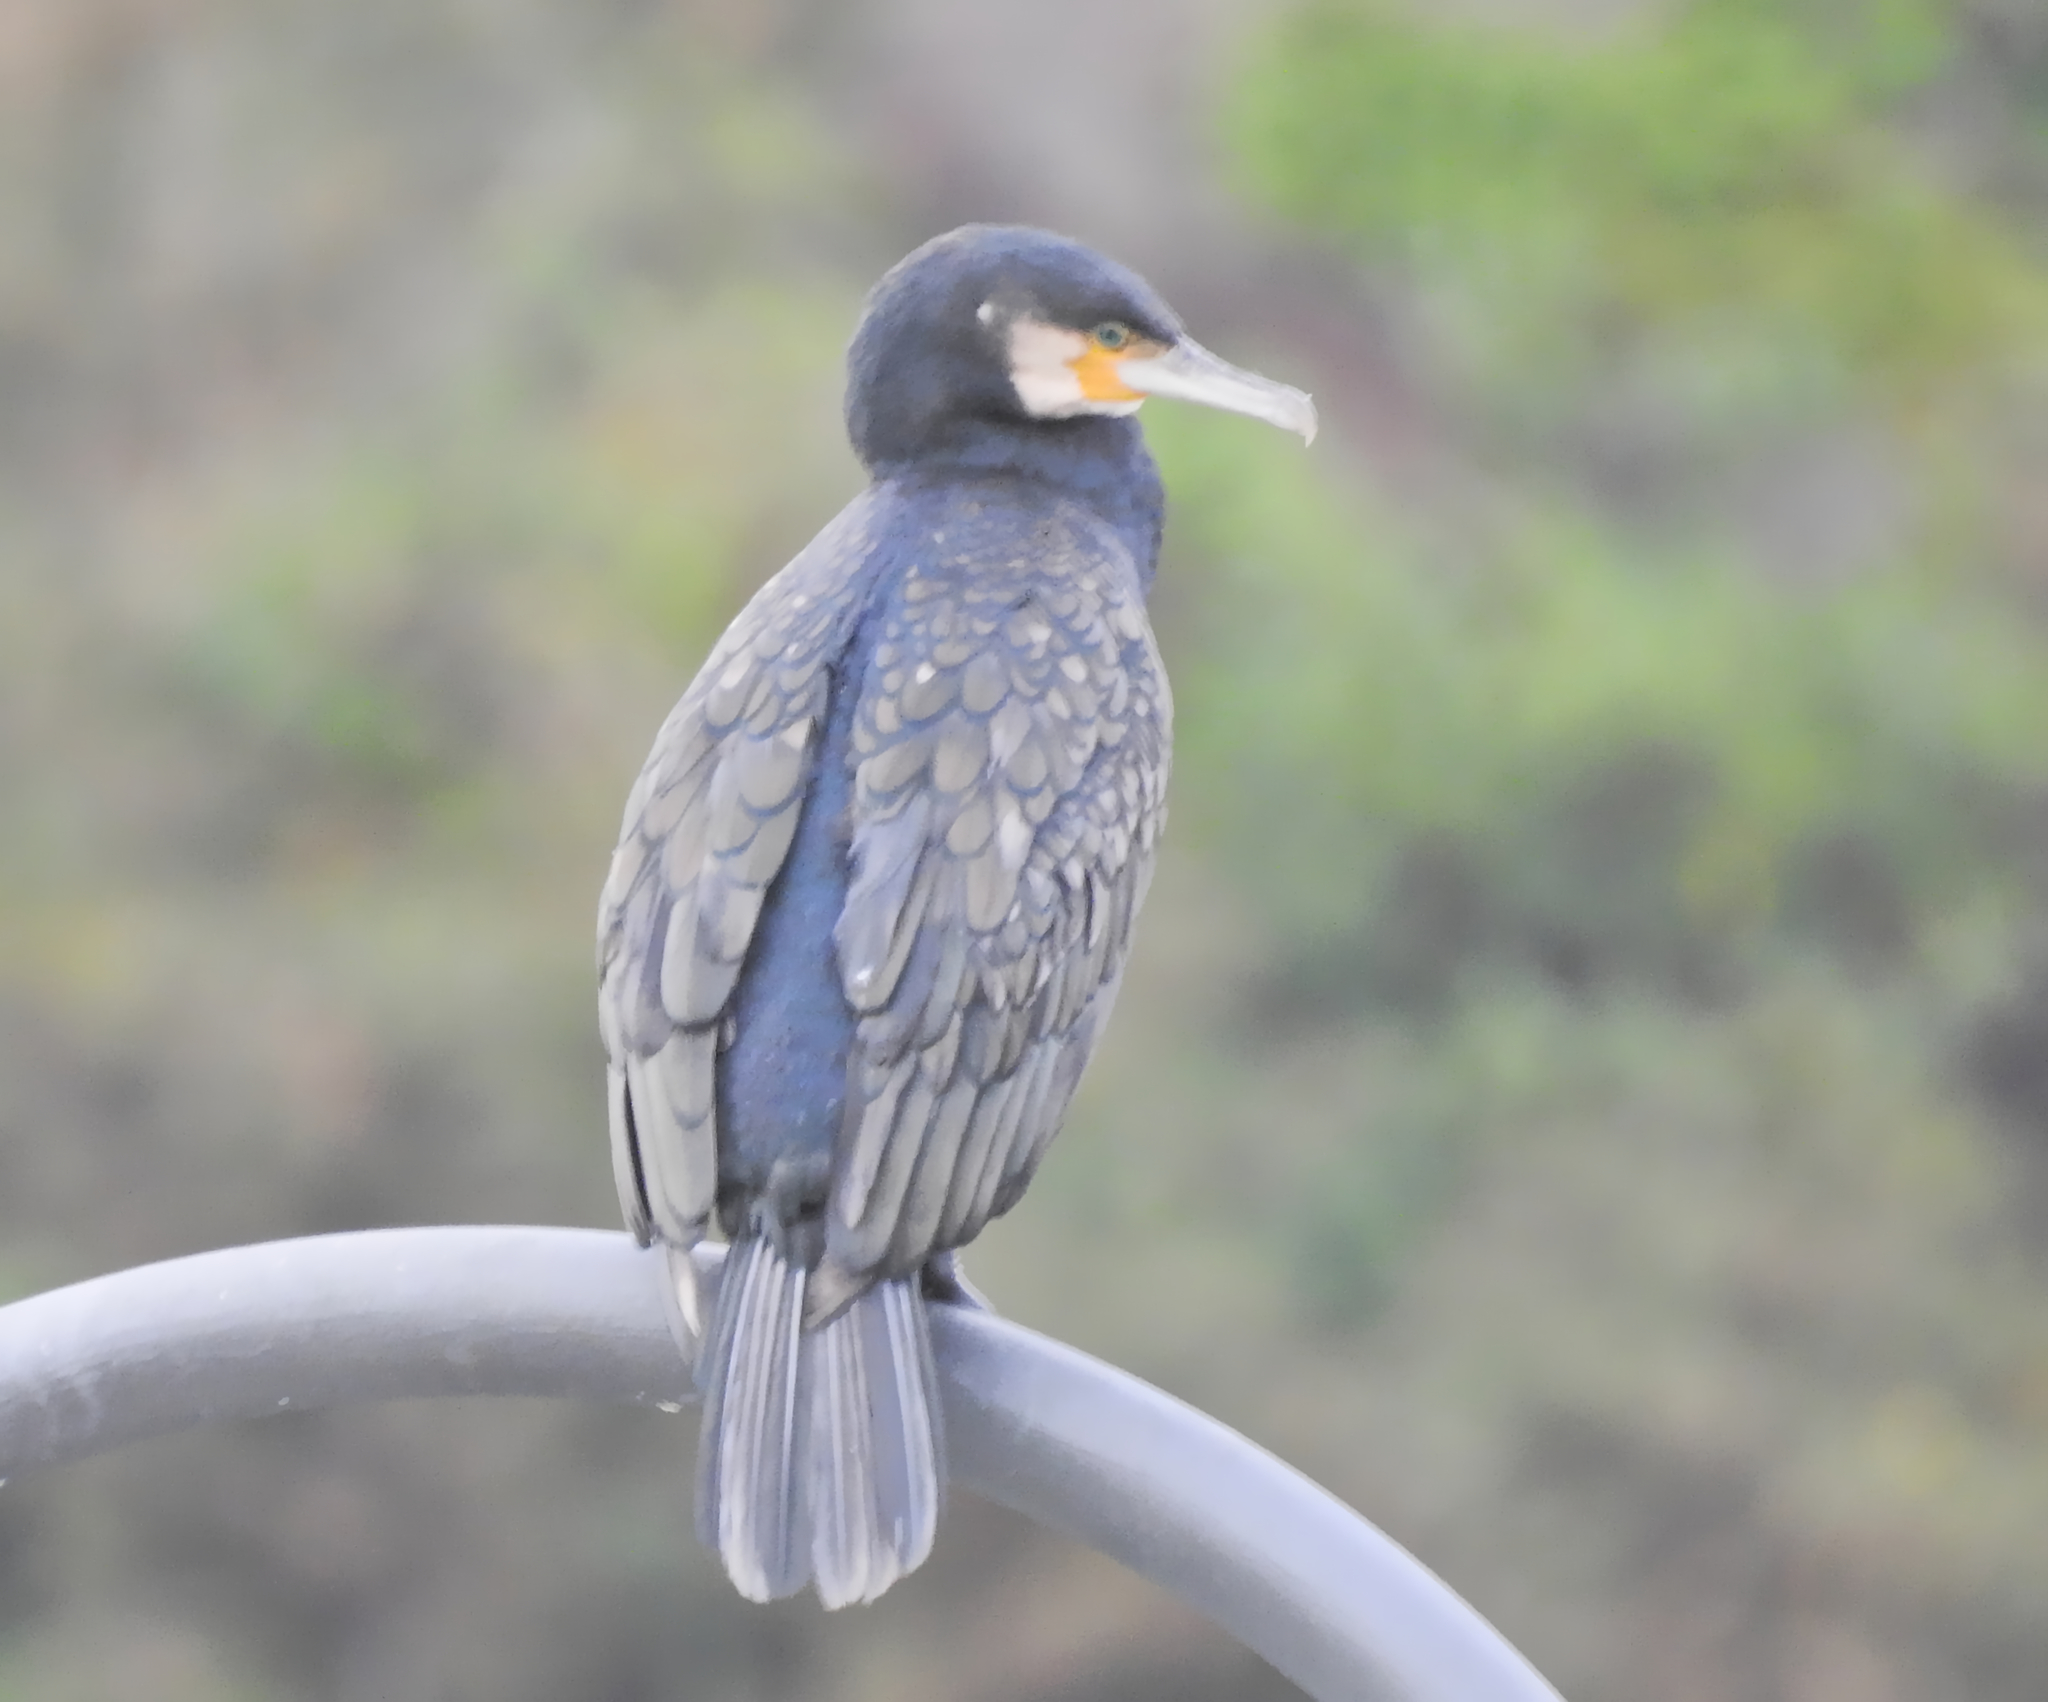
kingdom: Animalia
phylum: Chordata
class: Aves
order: Suliformes
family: Phalacrocoracidae
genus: Phalacrocorax
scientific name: Phalacrocorax carbo
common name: Great cormorant
